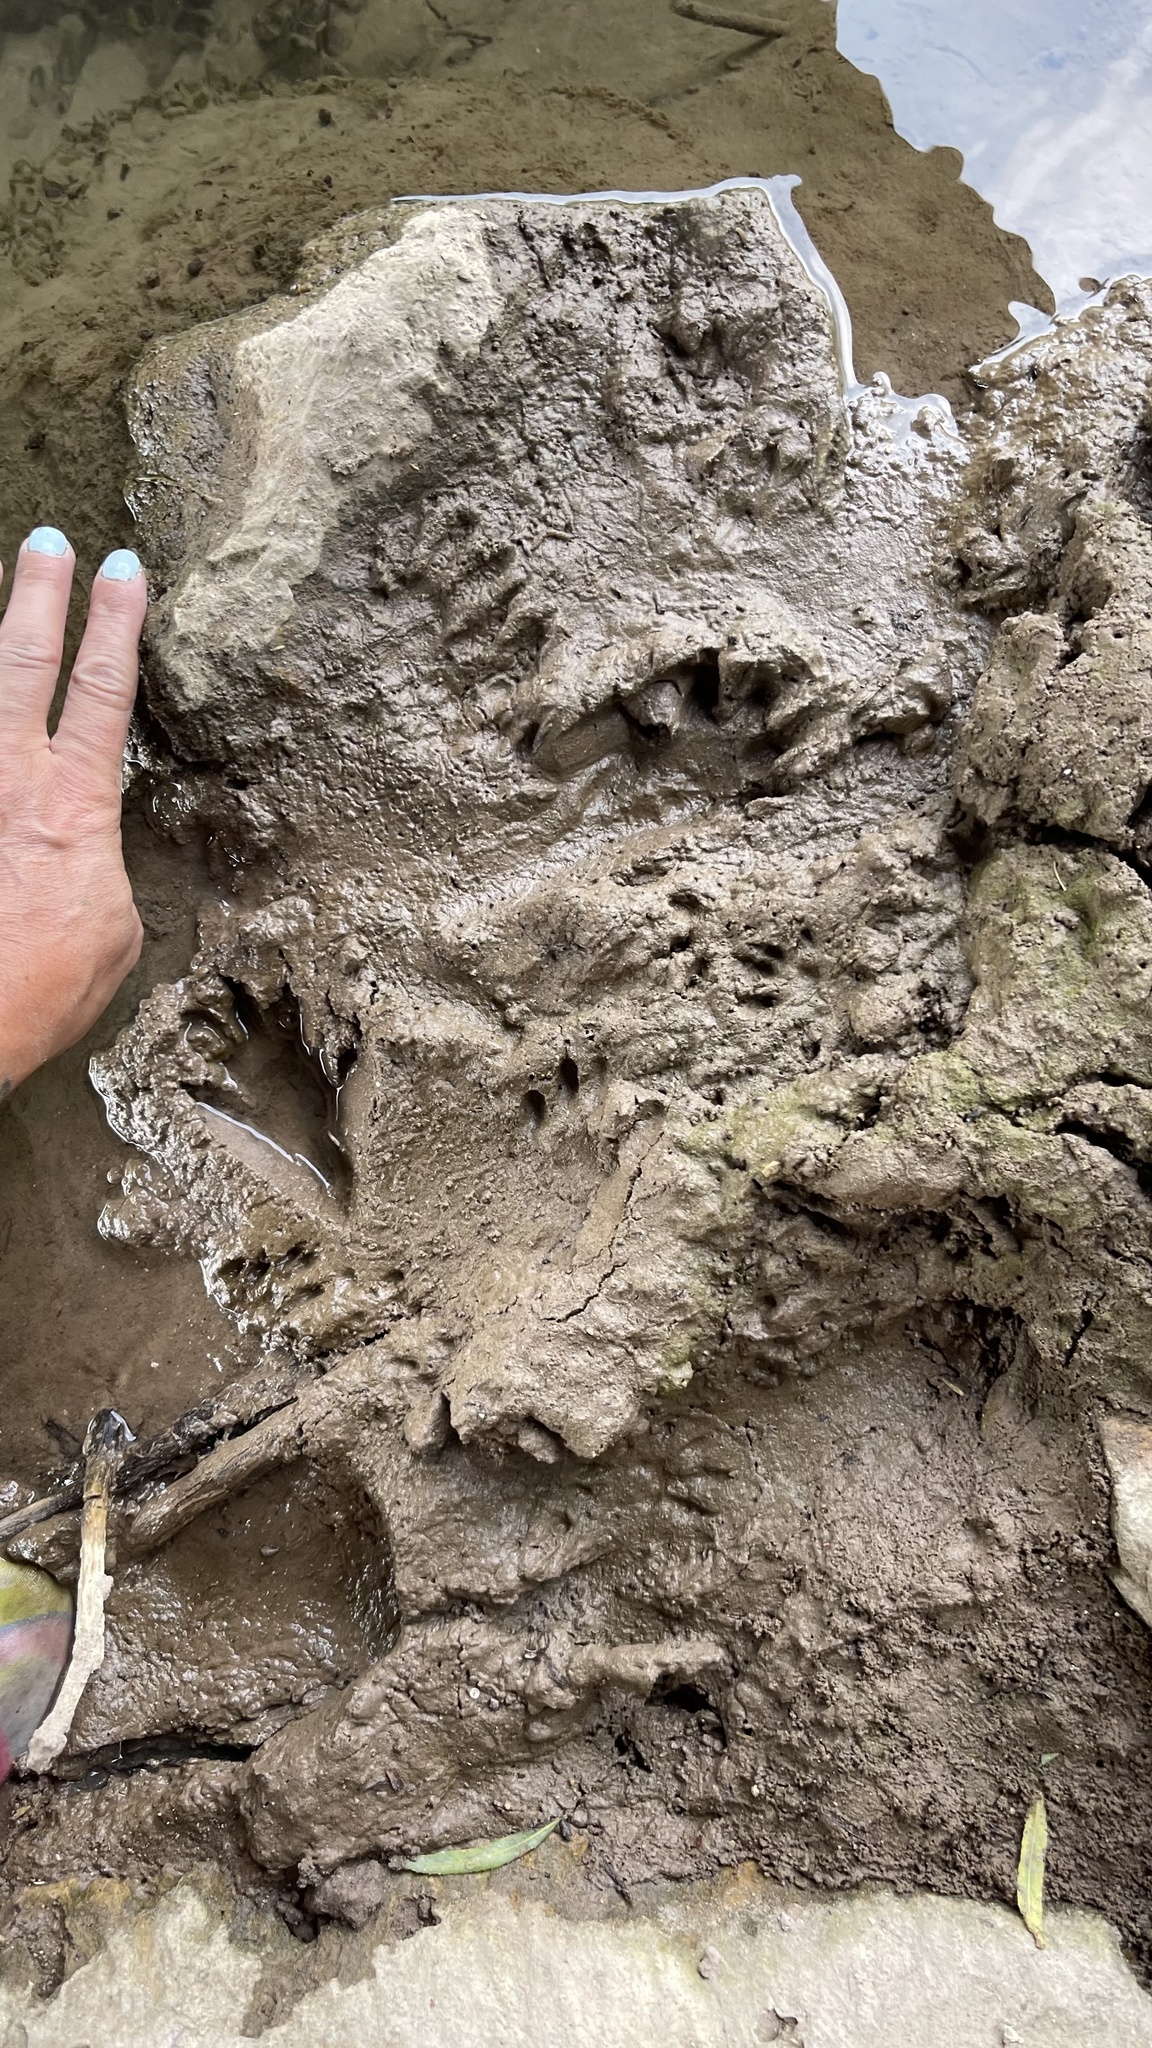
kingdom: Animalia
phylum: Chordata
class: Mammalia
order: Carnivora
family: Procyonidae
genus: Procyon
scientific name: Procyon lotor
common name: Raccoon
